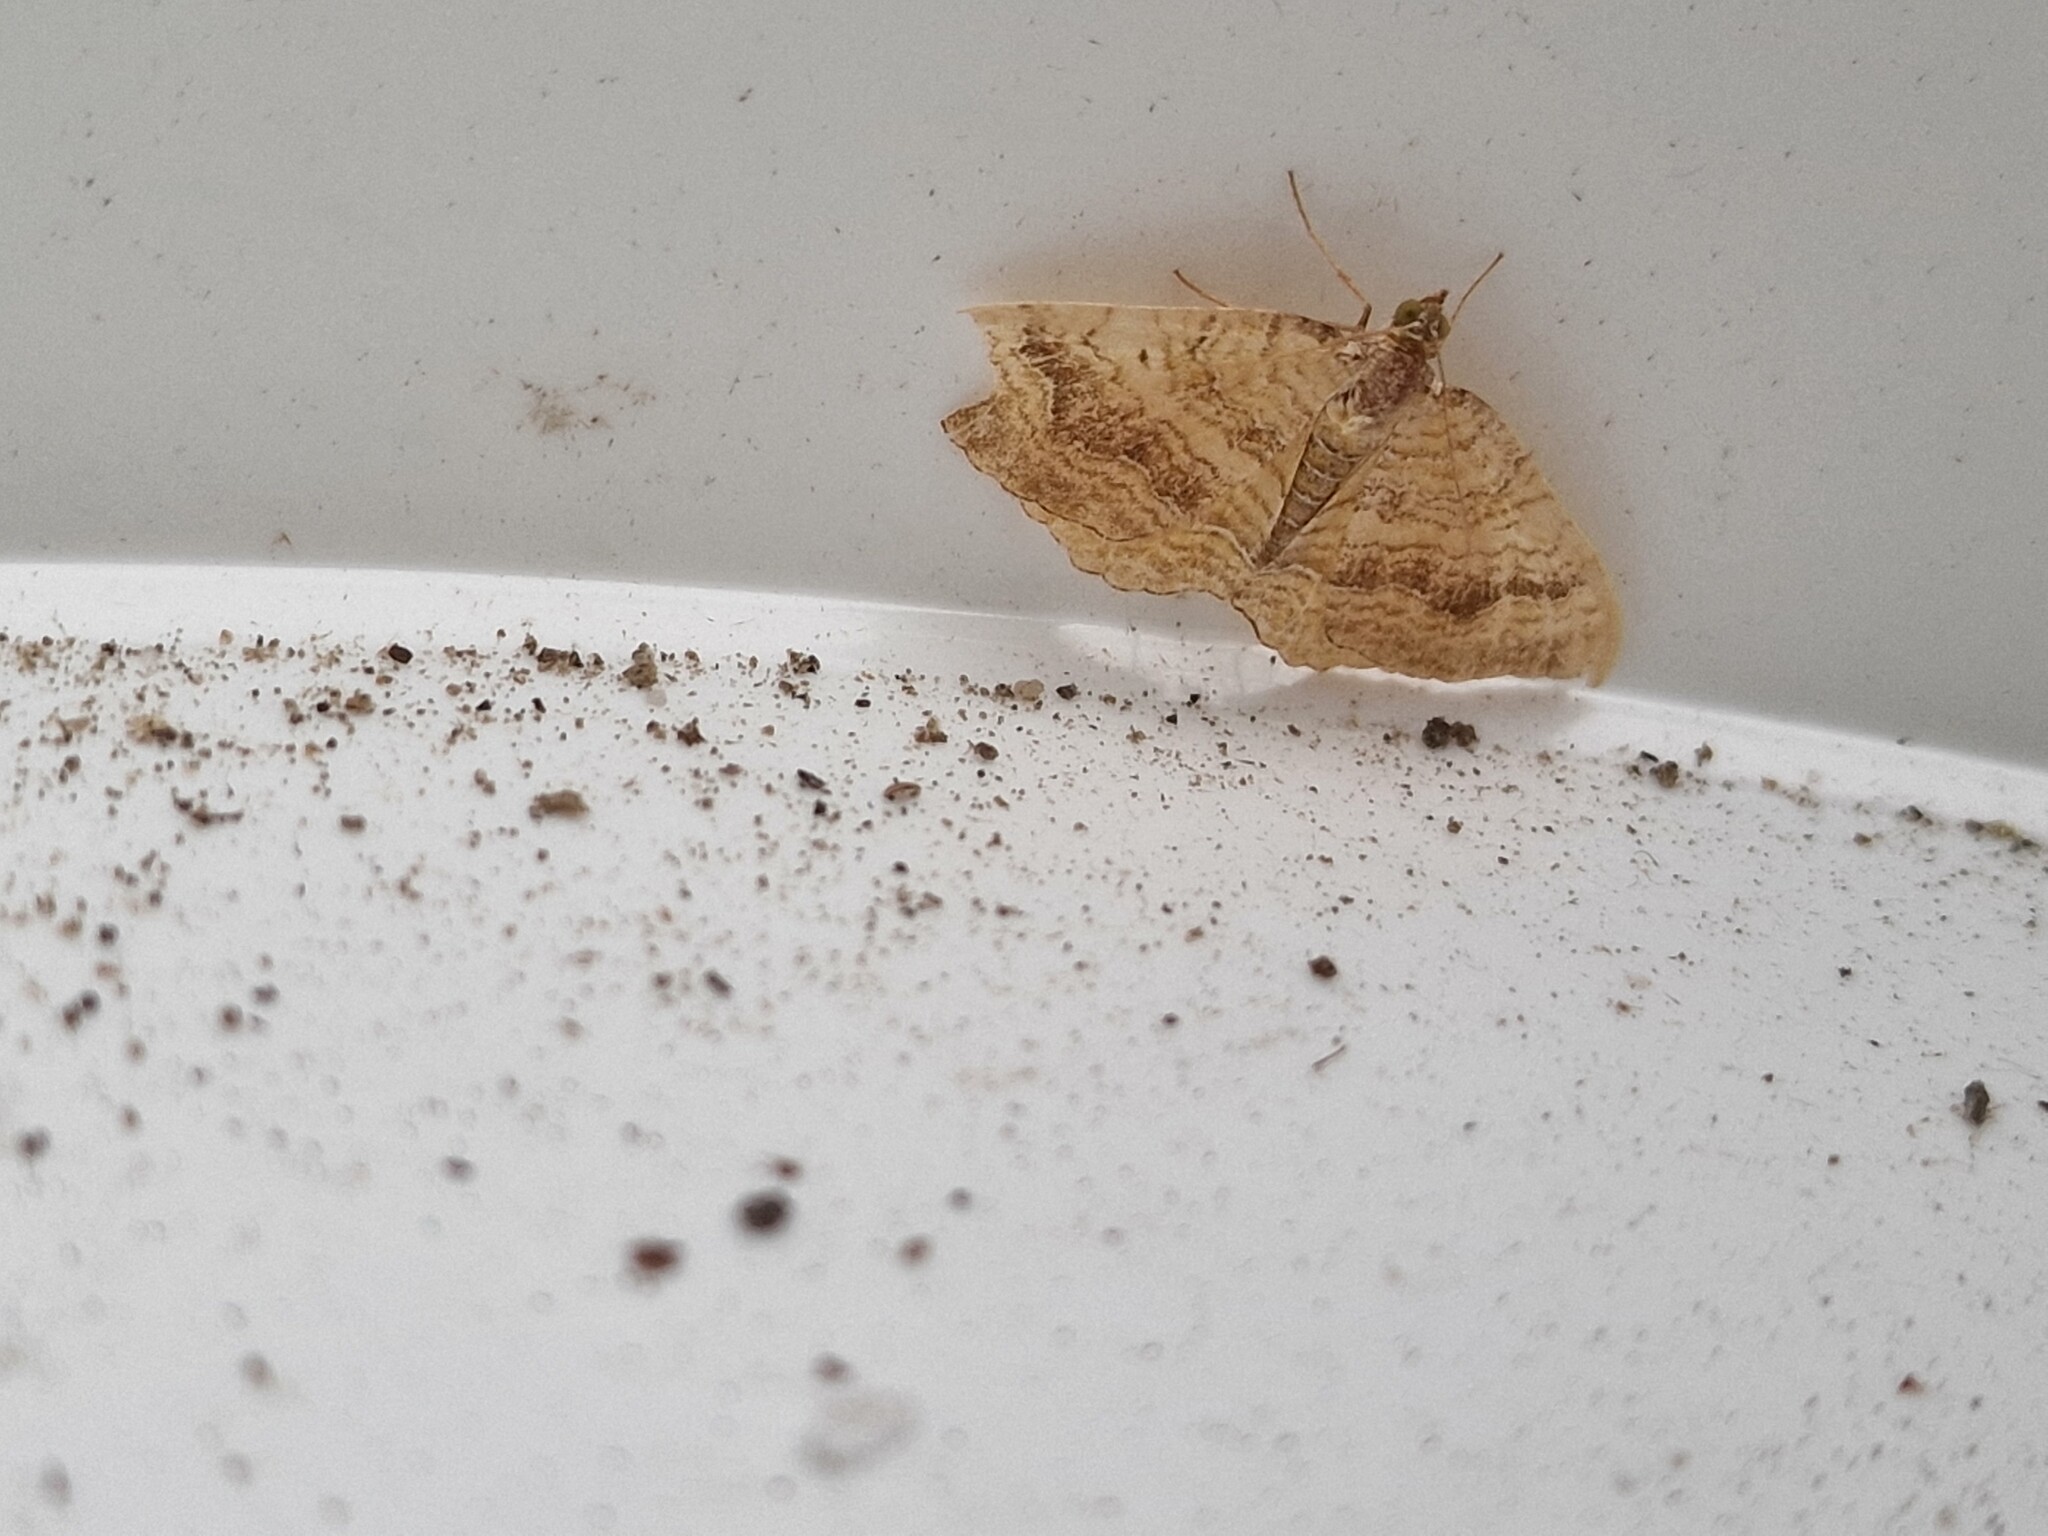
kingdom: Animalia
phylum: Arthropoda
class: Insecta
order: Lepidoptera
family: Geometridae
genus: Camptogramma
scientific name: Camptogramma bilineata
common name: Yellow shell
